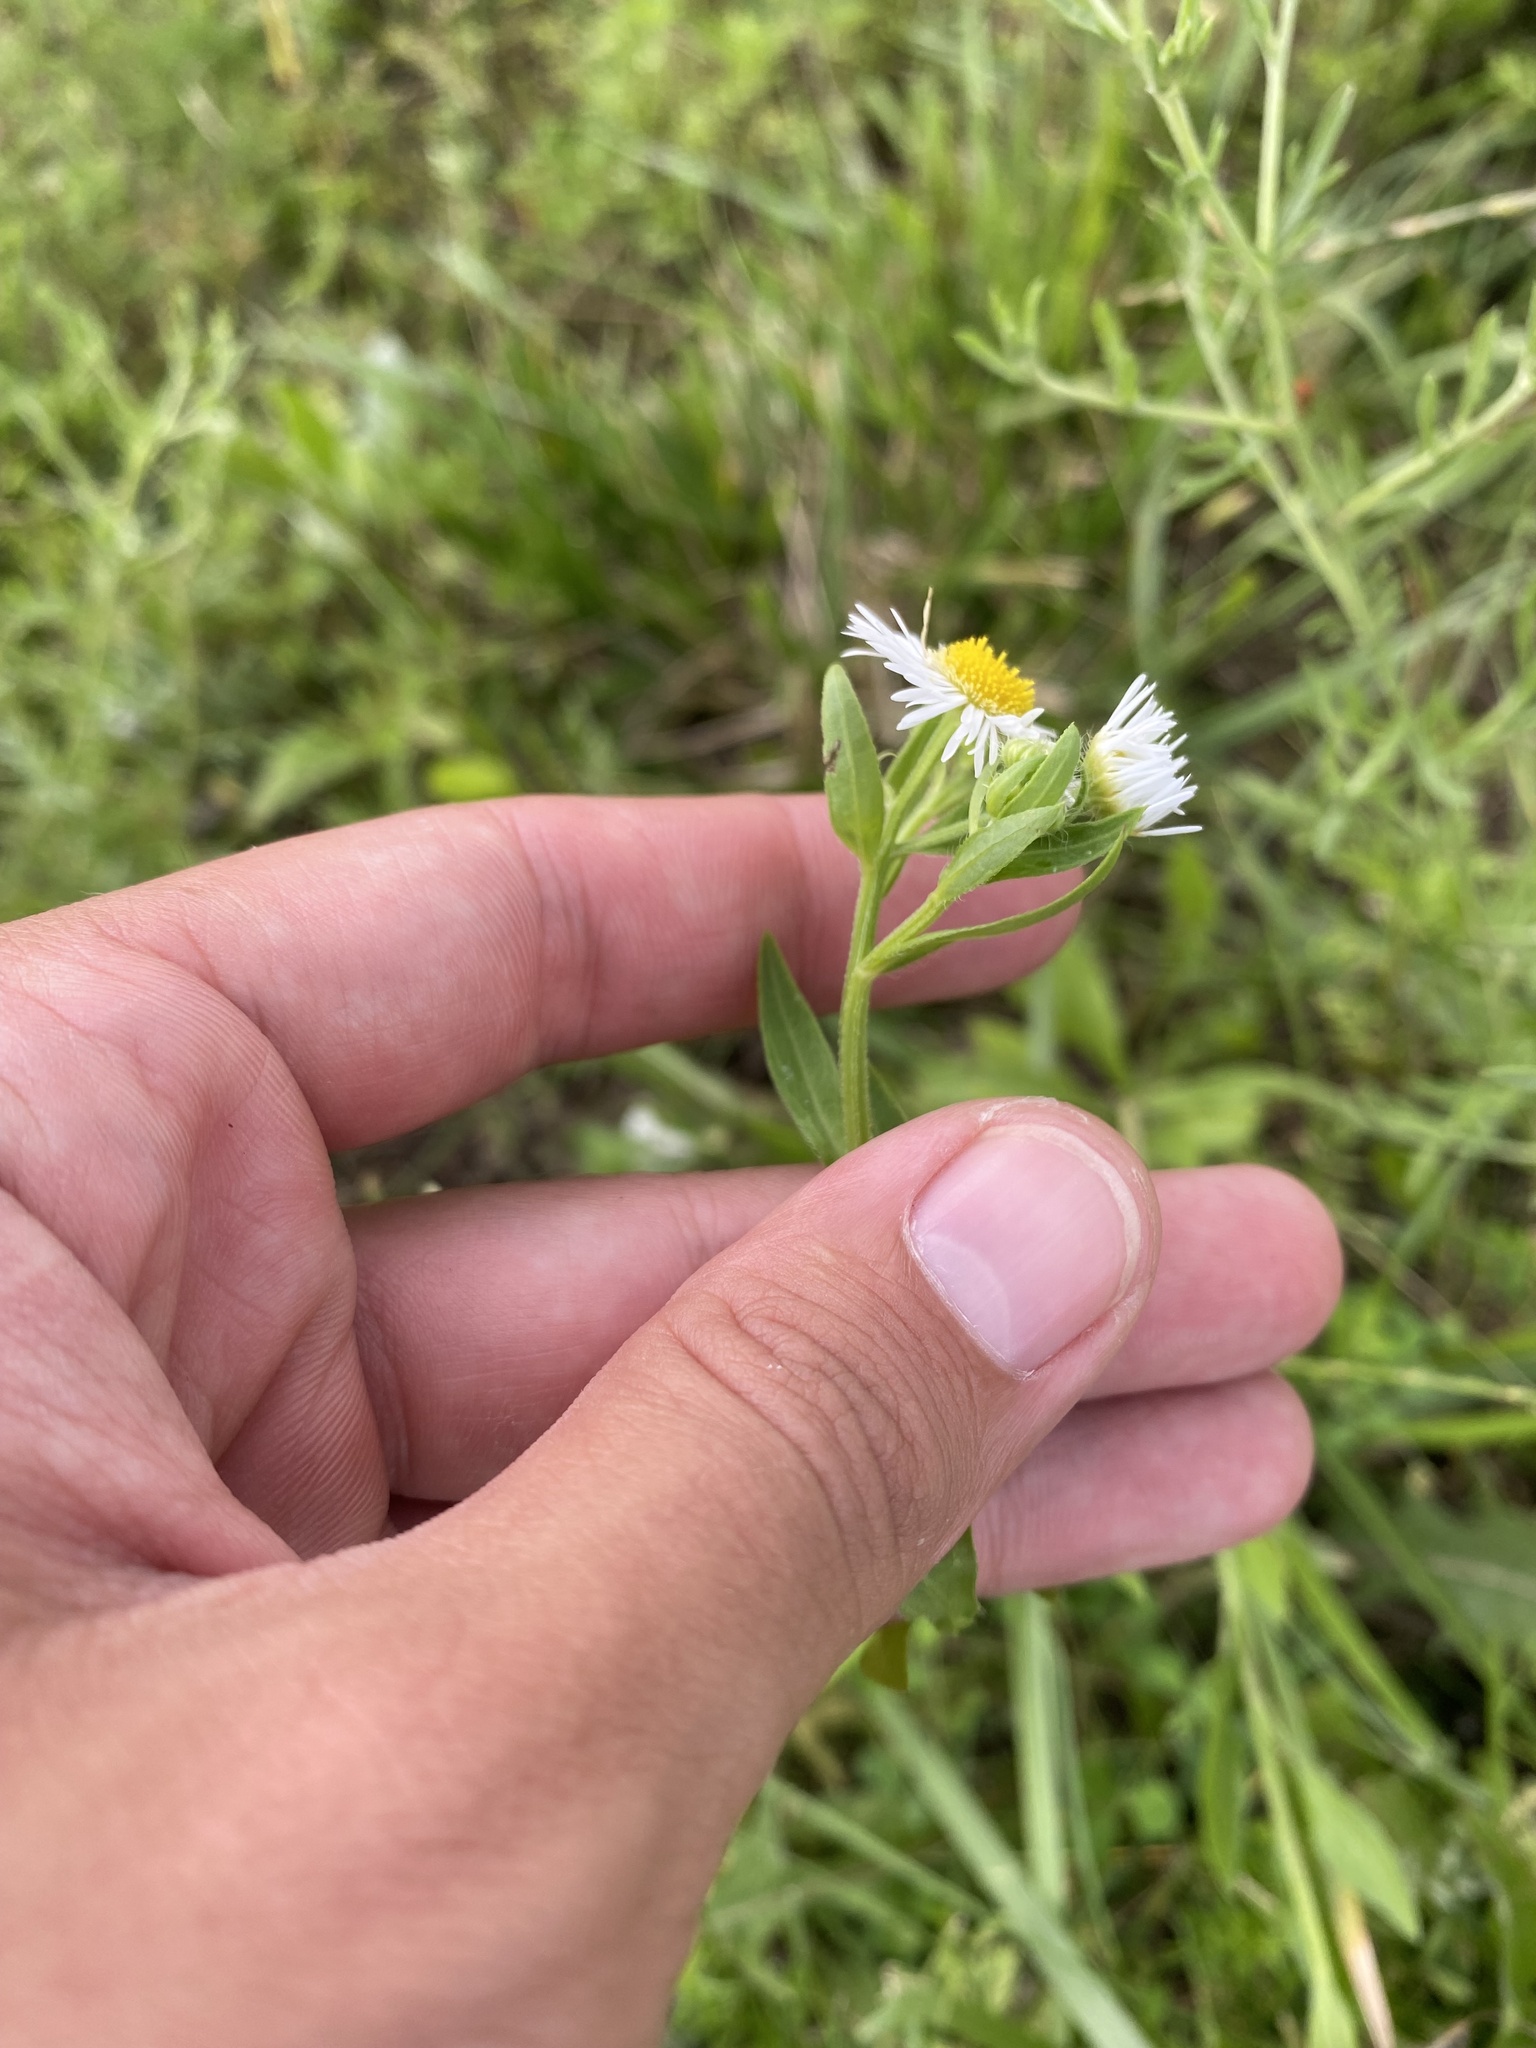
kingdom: Plantae
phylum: Tracheophyta
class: Magnoliopsida
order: Asterales
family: Asteraceae
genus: Erigeron
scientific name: Erigeron annuus
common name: Tall fleabane
